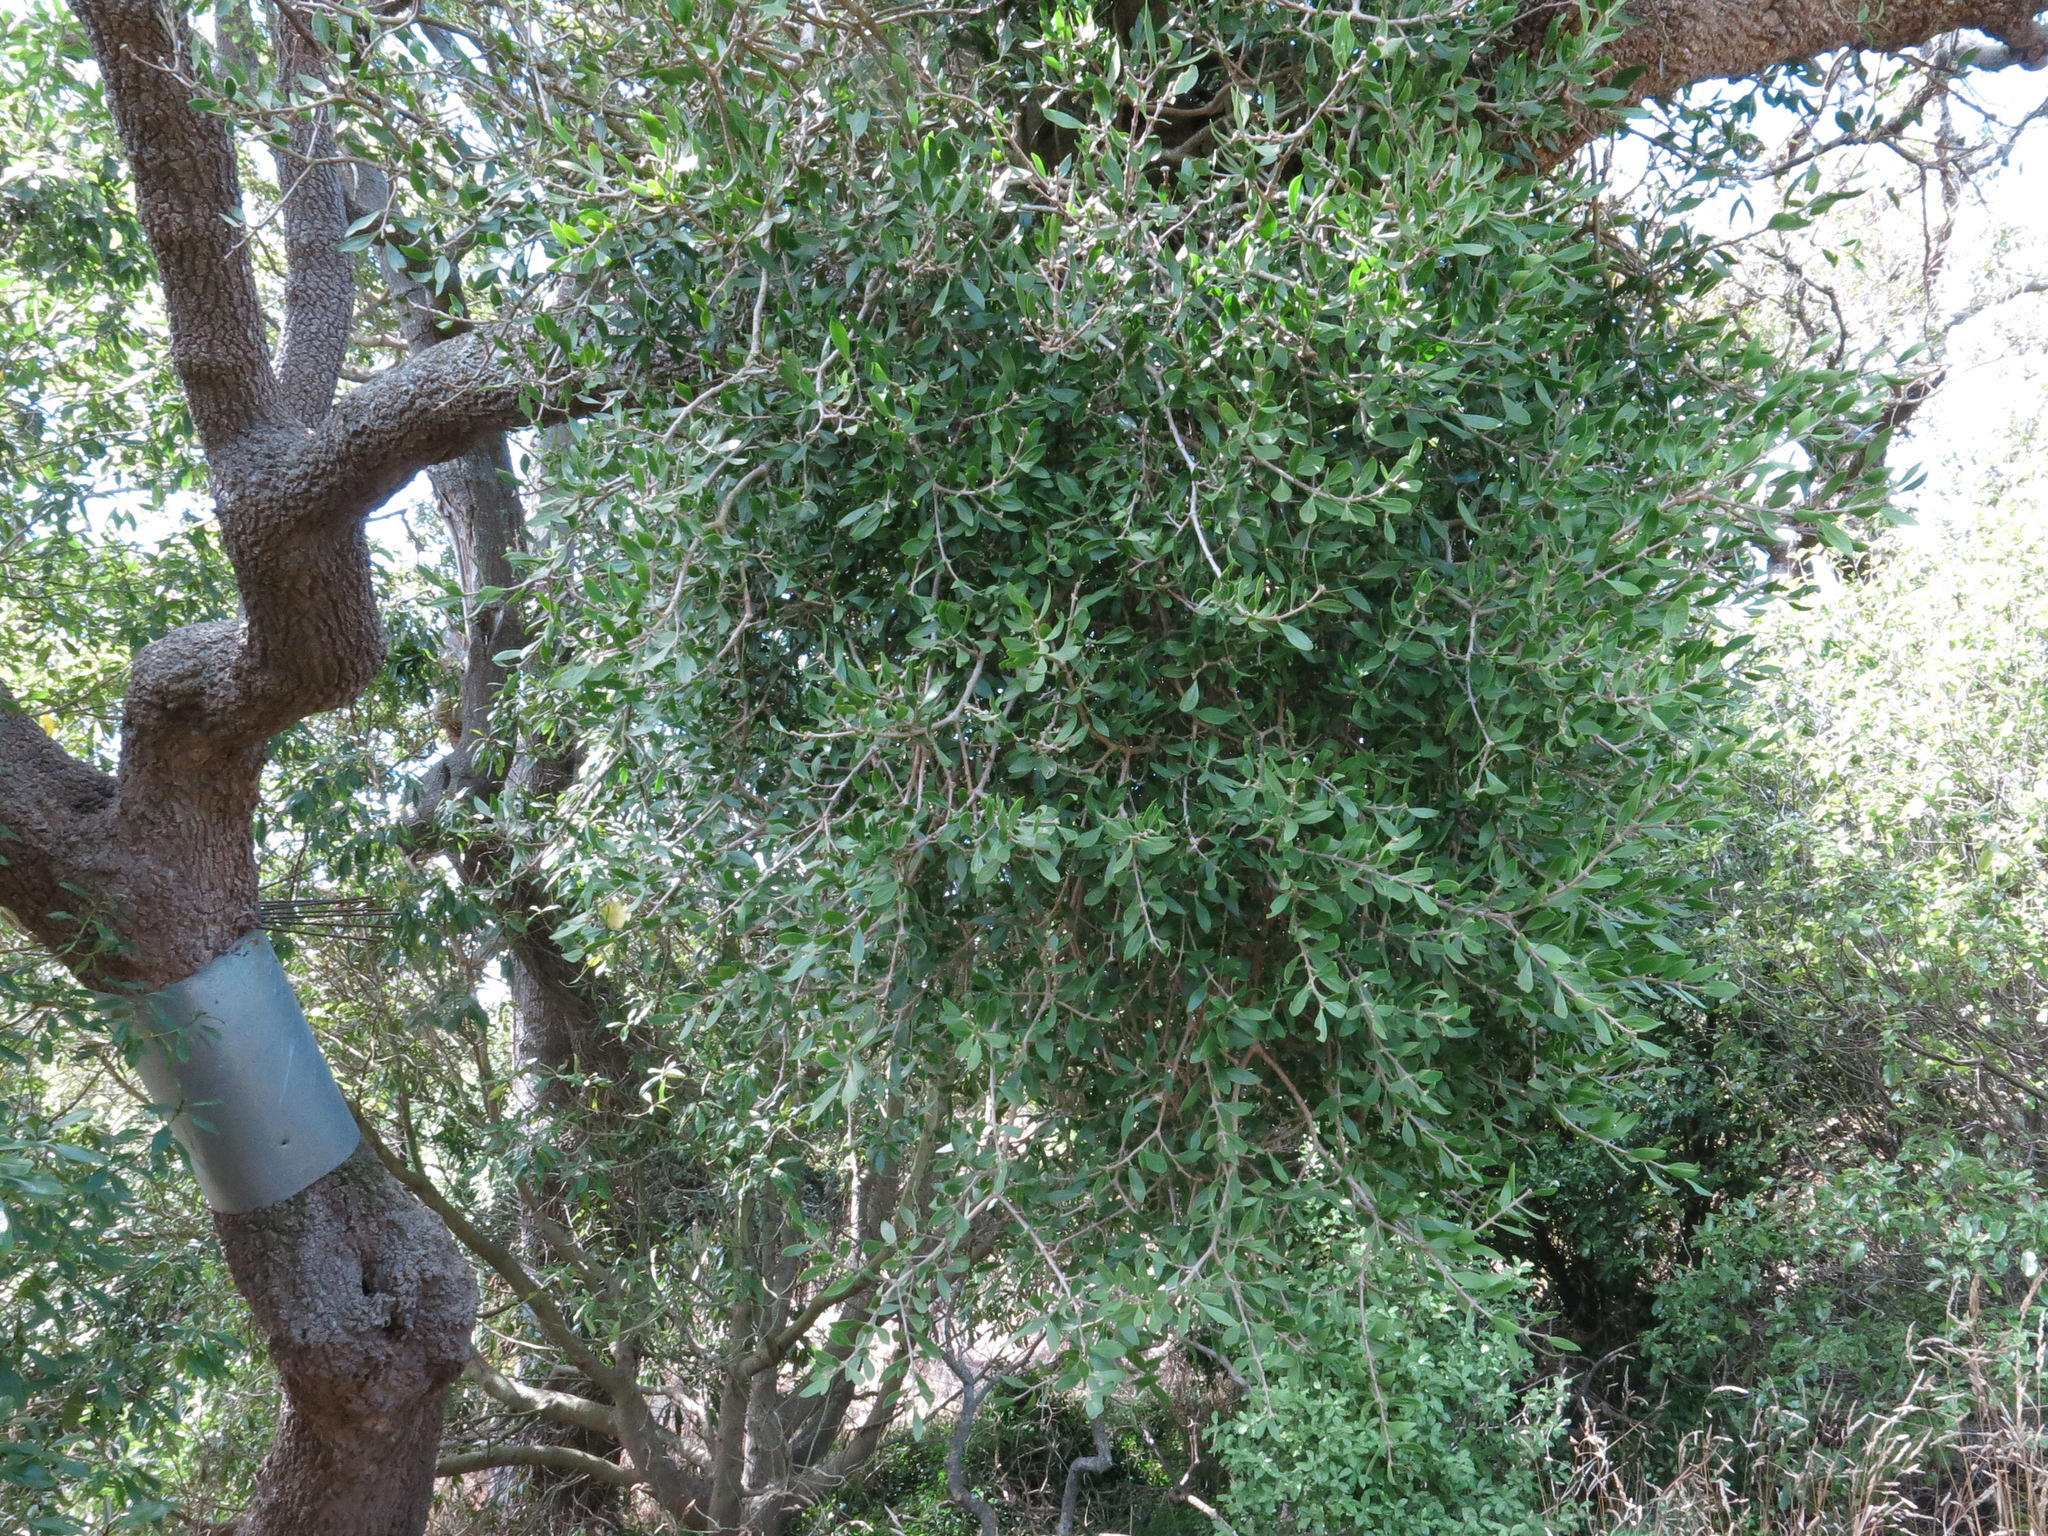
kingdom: Plantae
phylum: Tracheophyta
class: Magnoliopsida
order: Santalales
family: Loranthaceae
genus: Tupeia
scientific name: Tupeia antarctica
